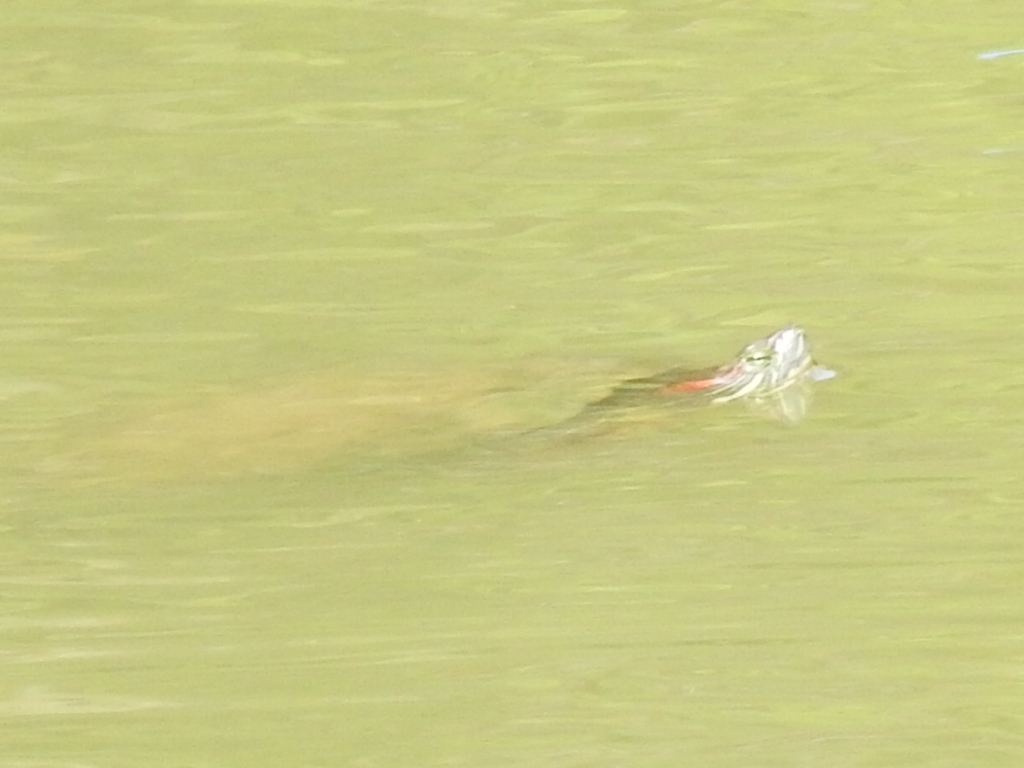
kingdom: Animalia
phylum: Chordata
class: Testudines
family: Emydidae
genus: Trachemys
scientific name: Trachemys scripta
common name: Slider
